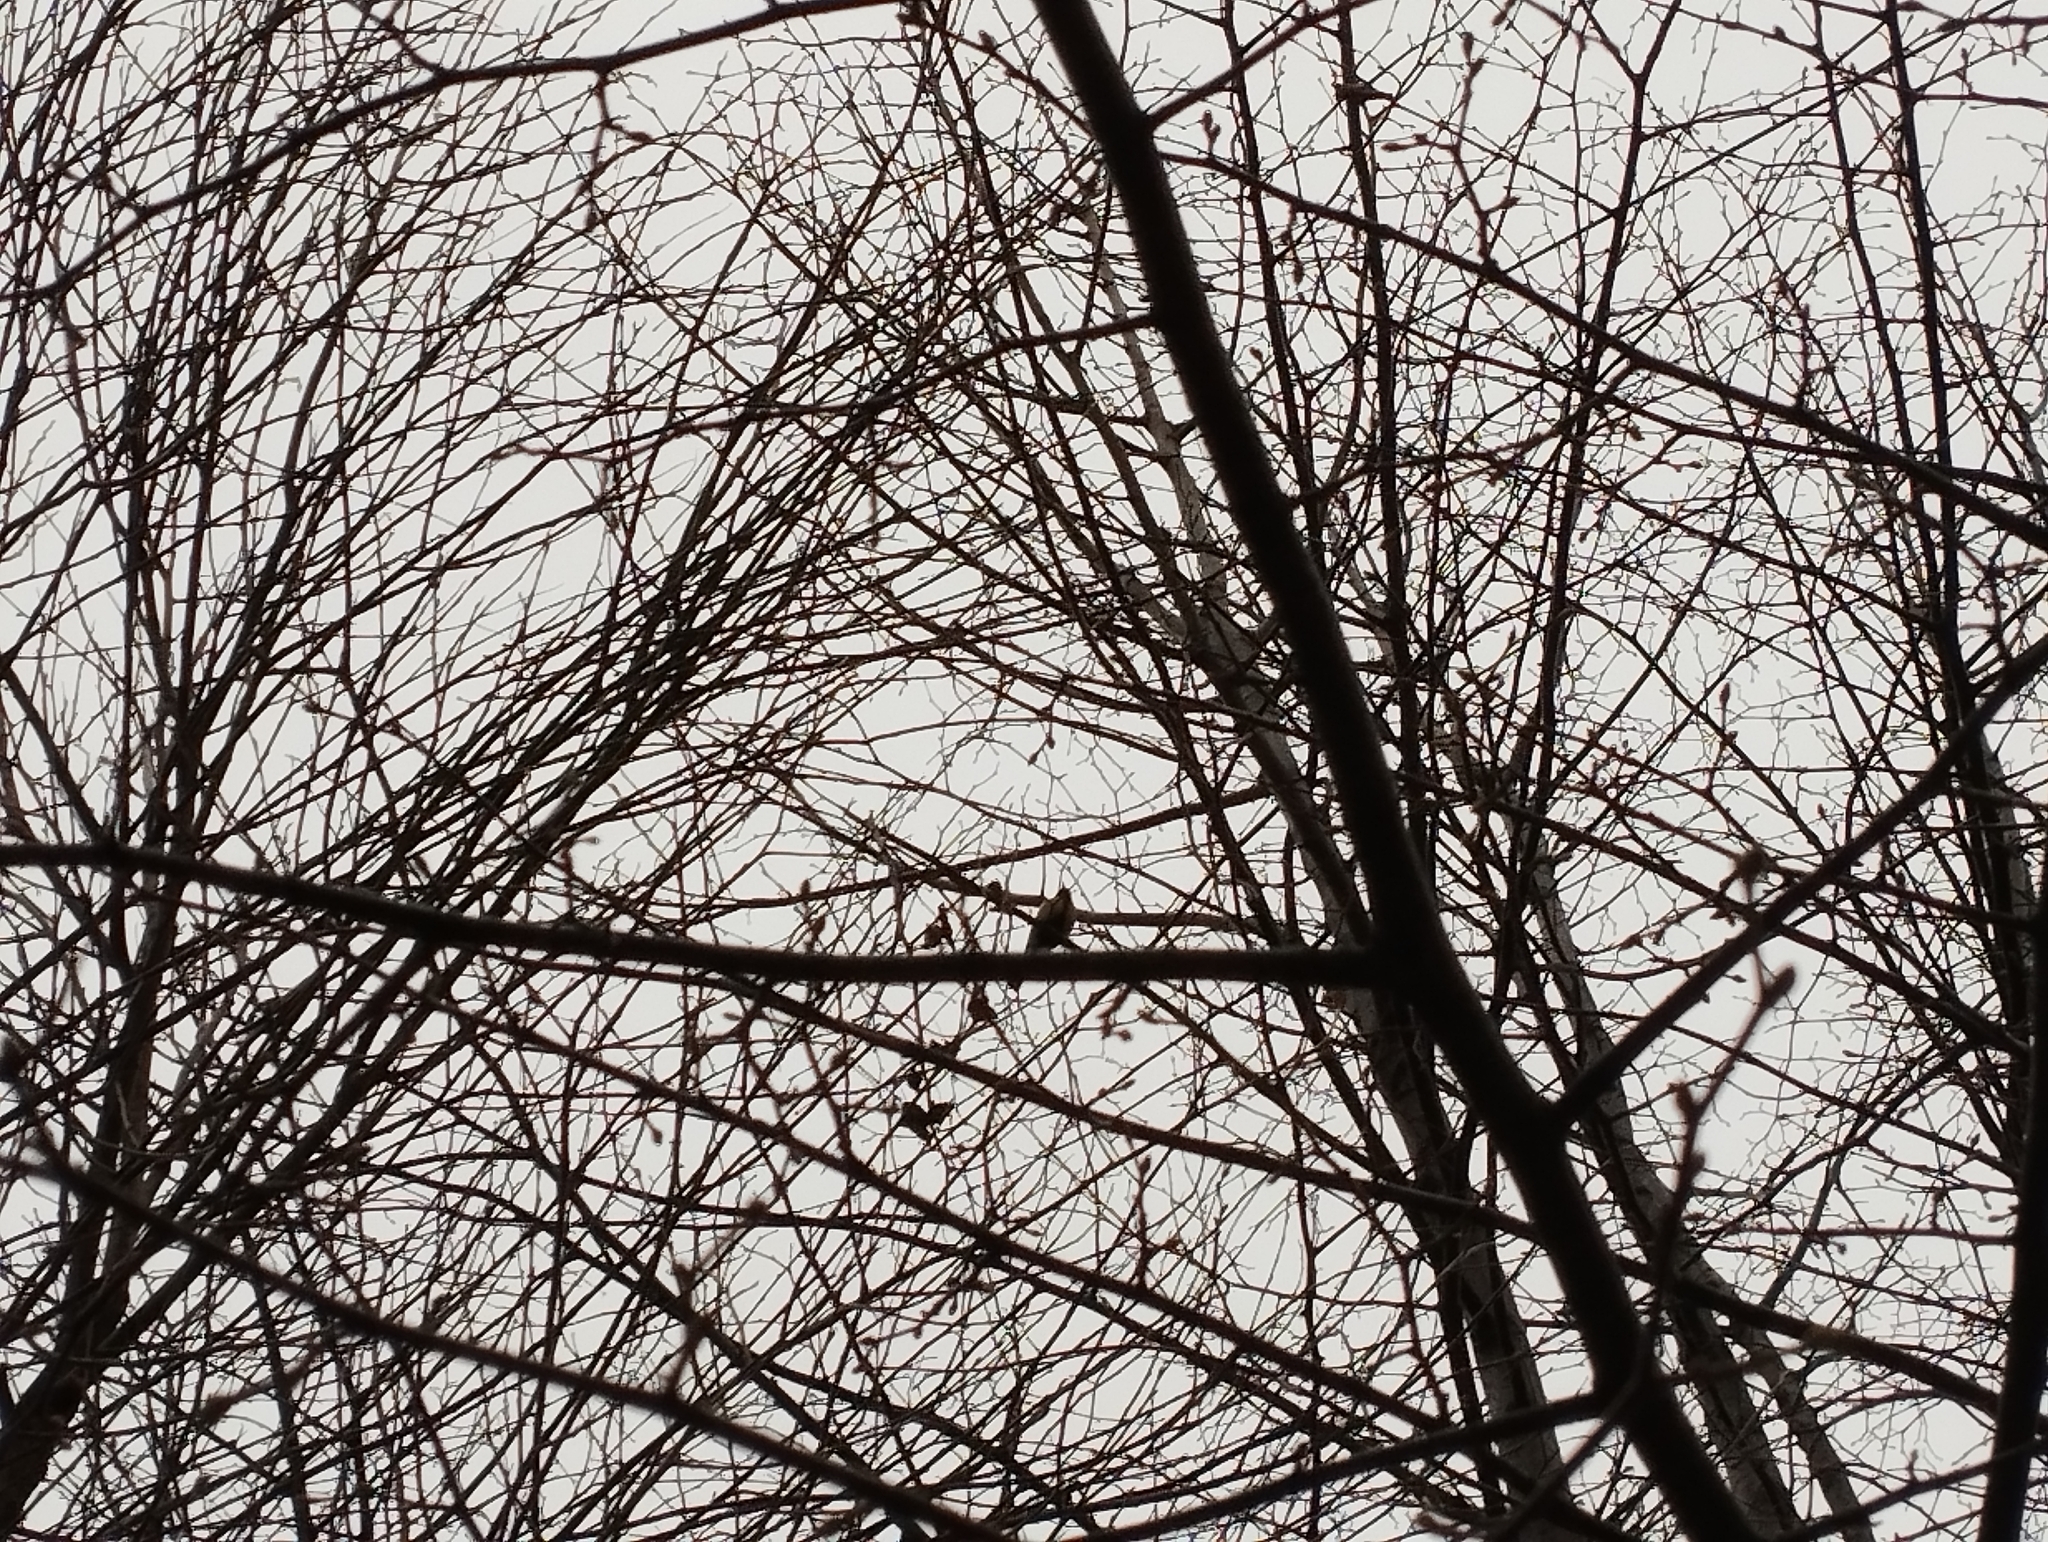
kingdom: Animalia
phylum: Chordata
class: Aves
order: Passeriformes
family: Paridae
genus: Parus
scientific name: Parus major
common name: Great tit
